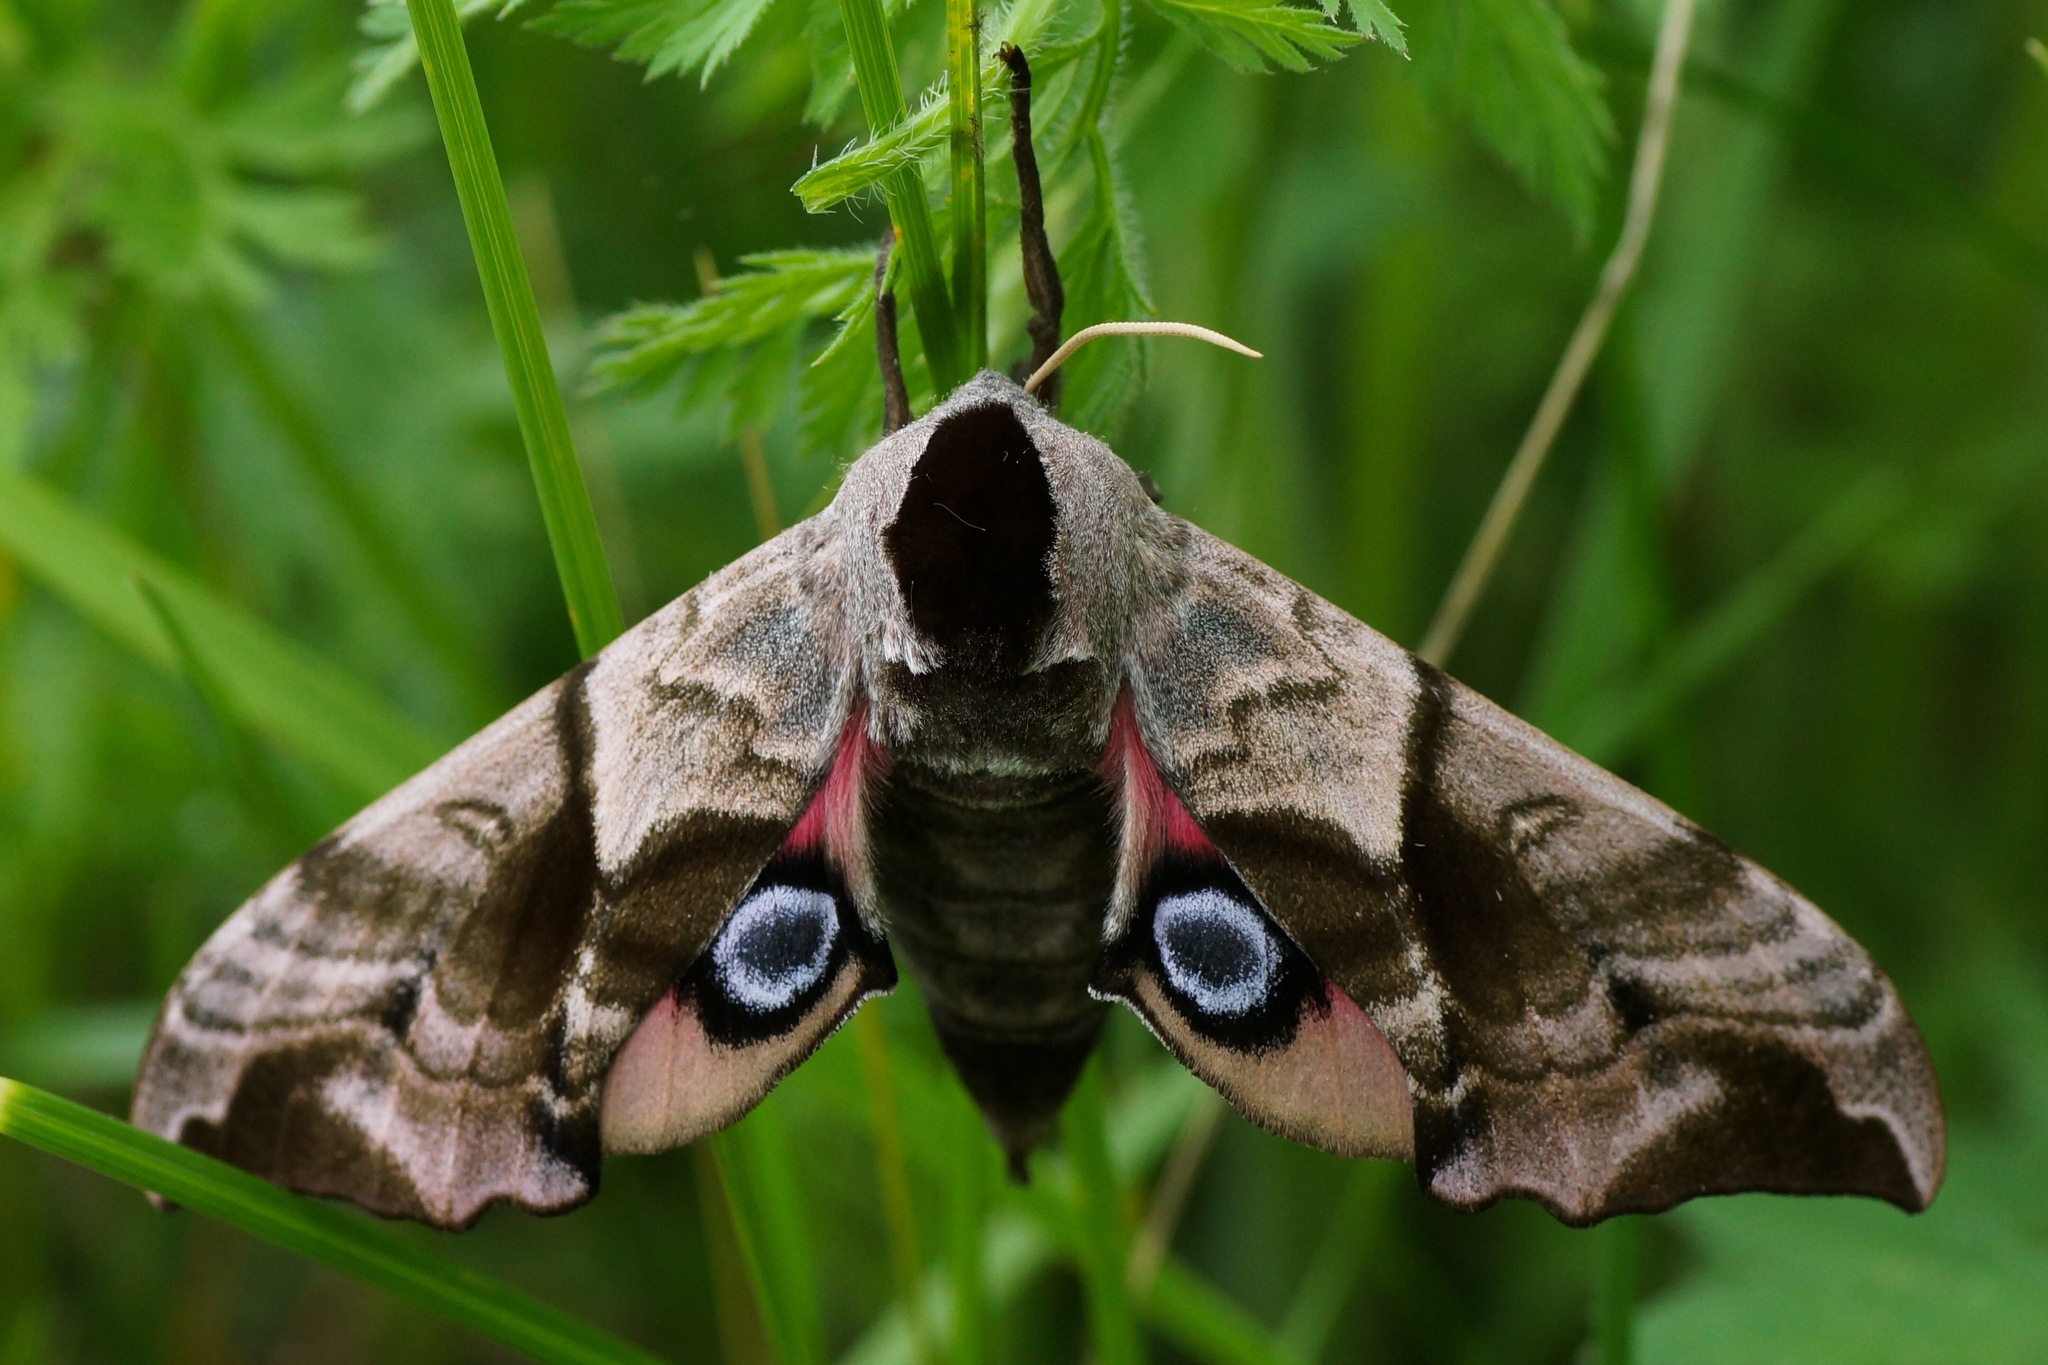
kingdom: Animalia
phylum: Arthropoda
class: Insecta
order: Lepidoptera
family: Sphingidae
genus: Smerinthus
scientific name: Smerinthus ocellata
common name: Eyed hawk-moth
